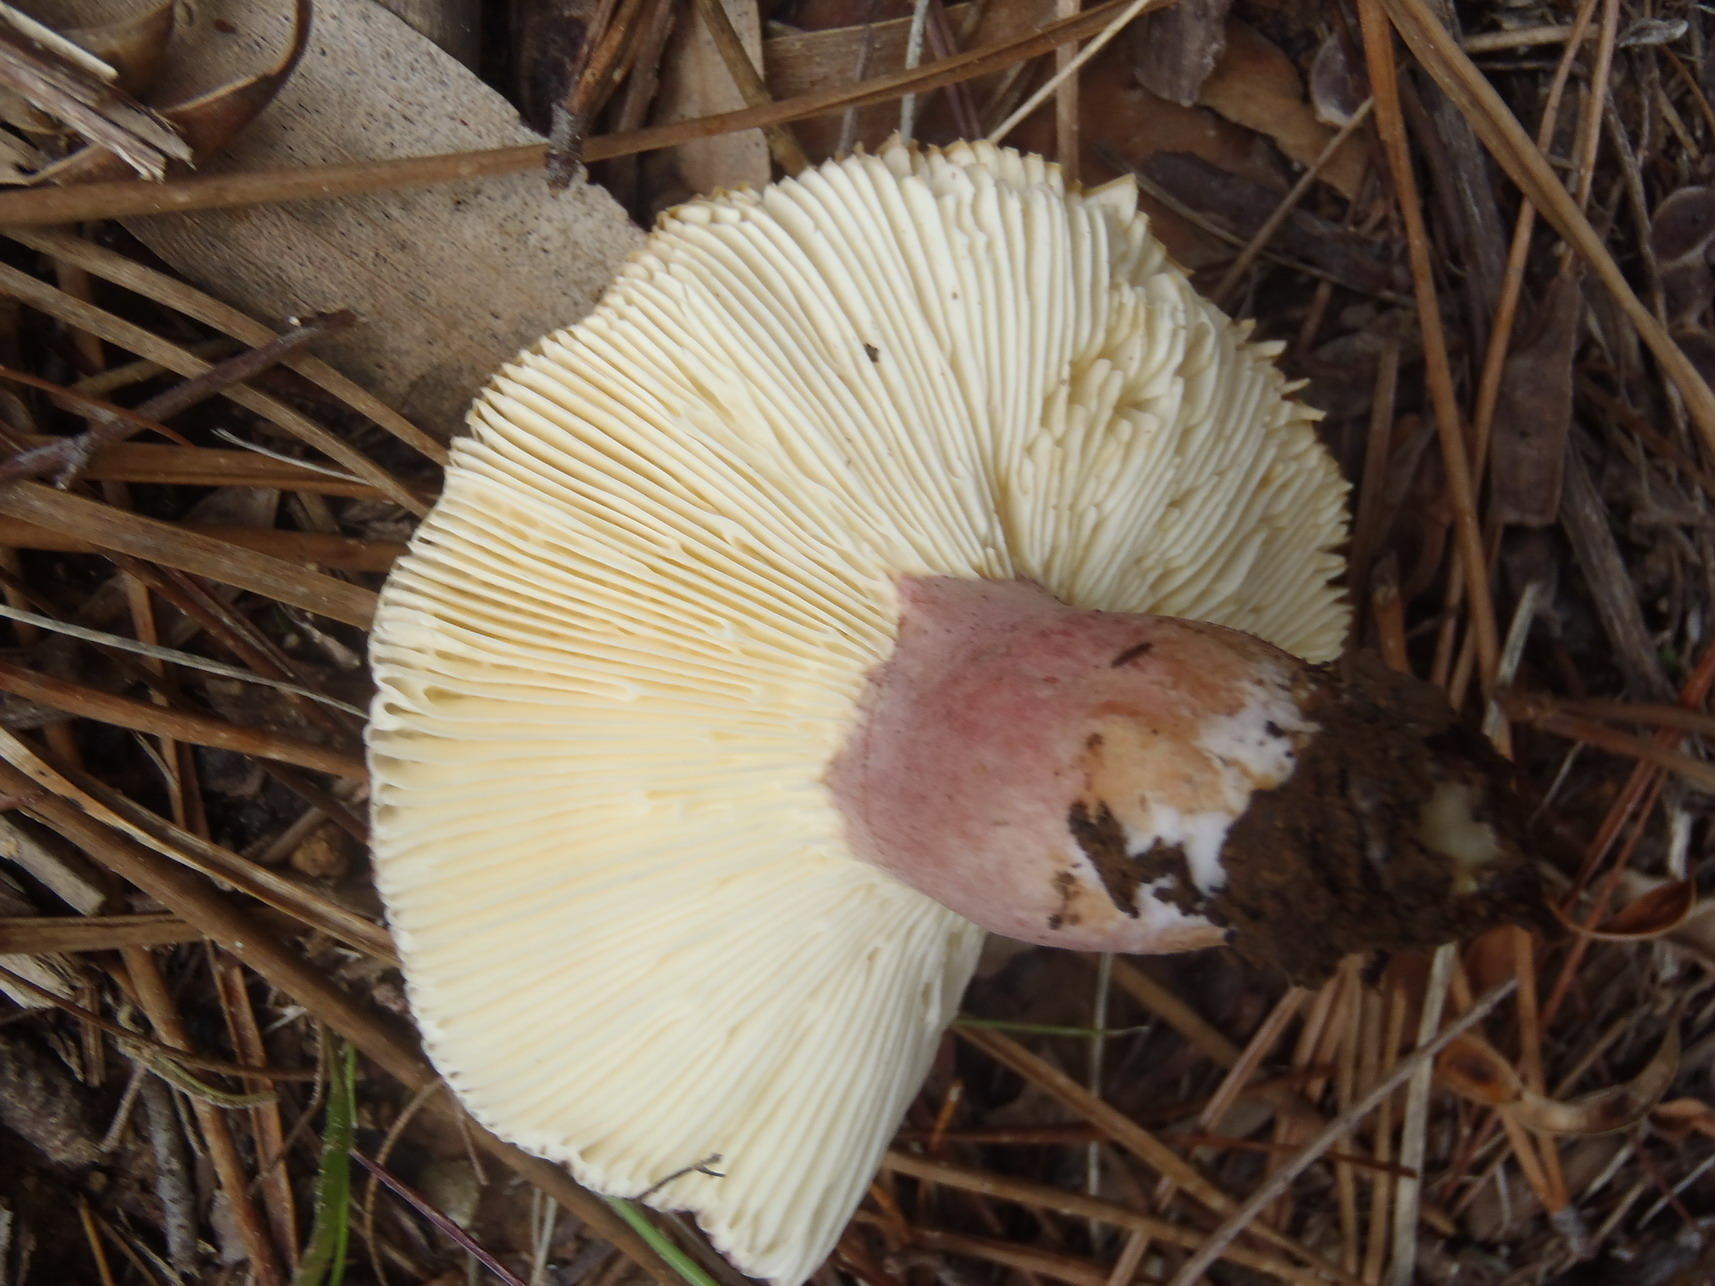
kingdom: Fungi
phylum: Basidiomycota
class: Agaricomycetes
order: Russulales
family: Russulaceae
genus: Russula
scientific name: Russula sardonia
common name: Primrose brittlegill
